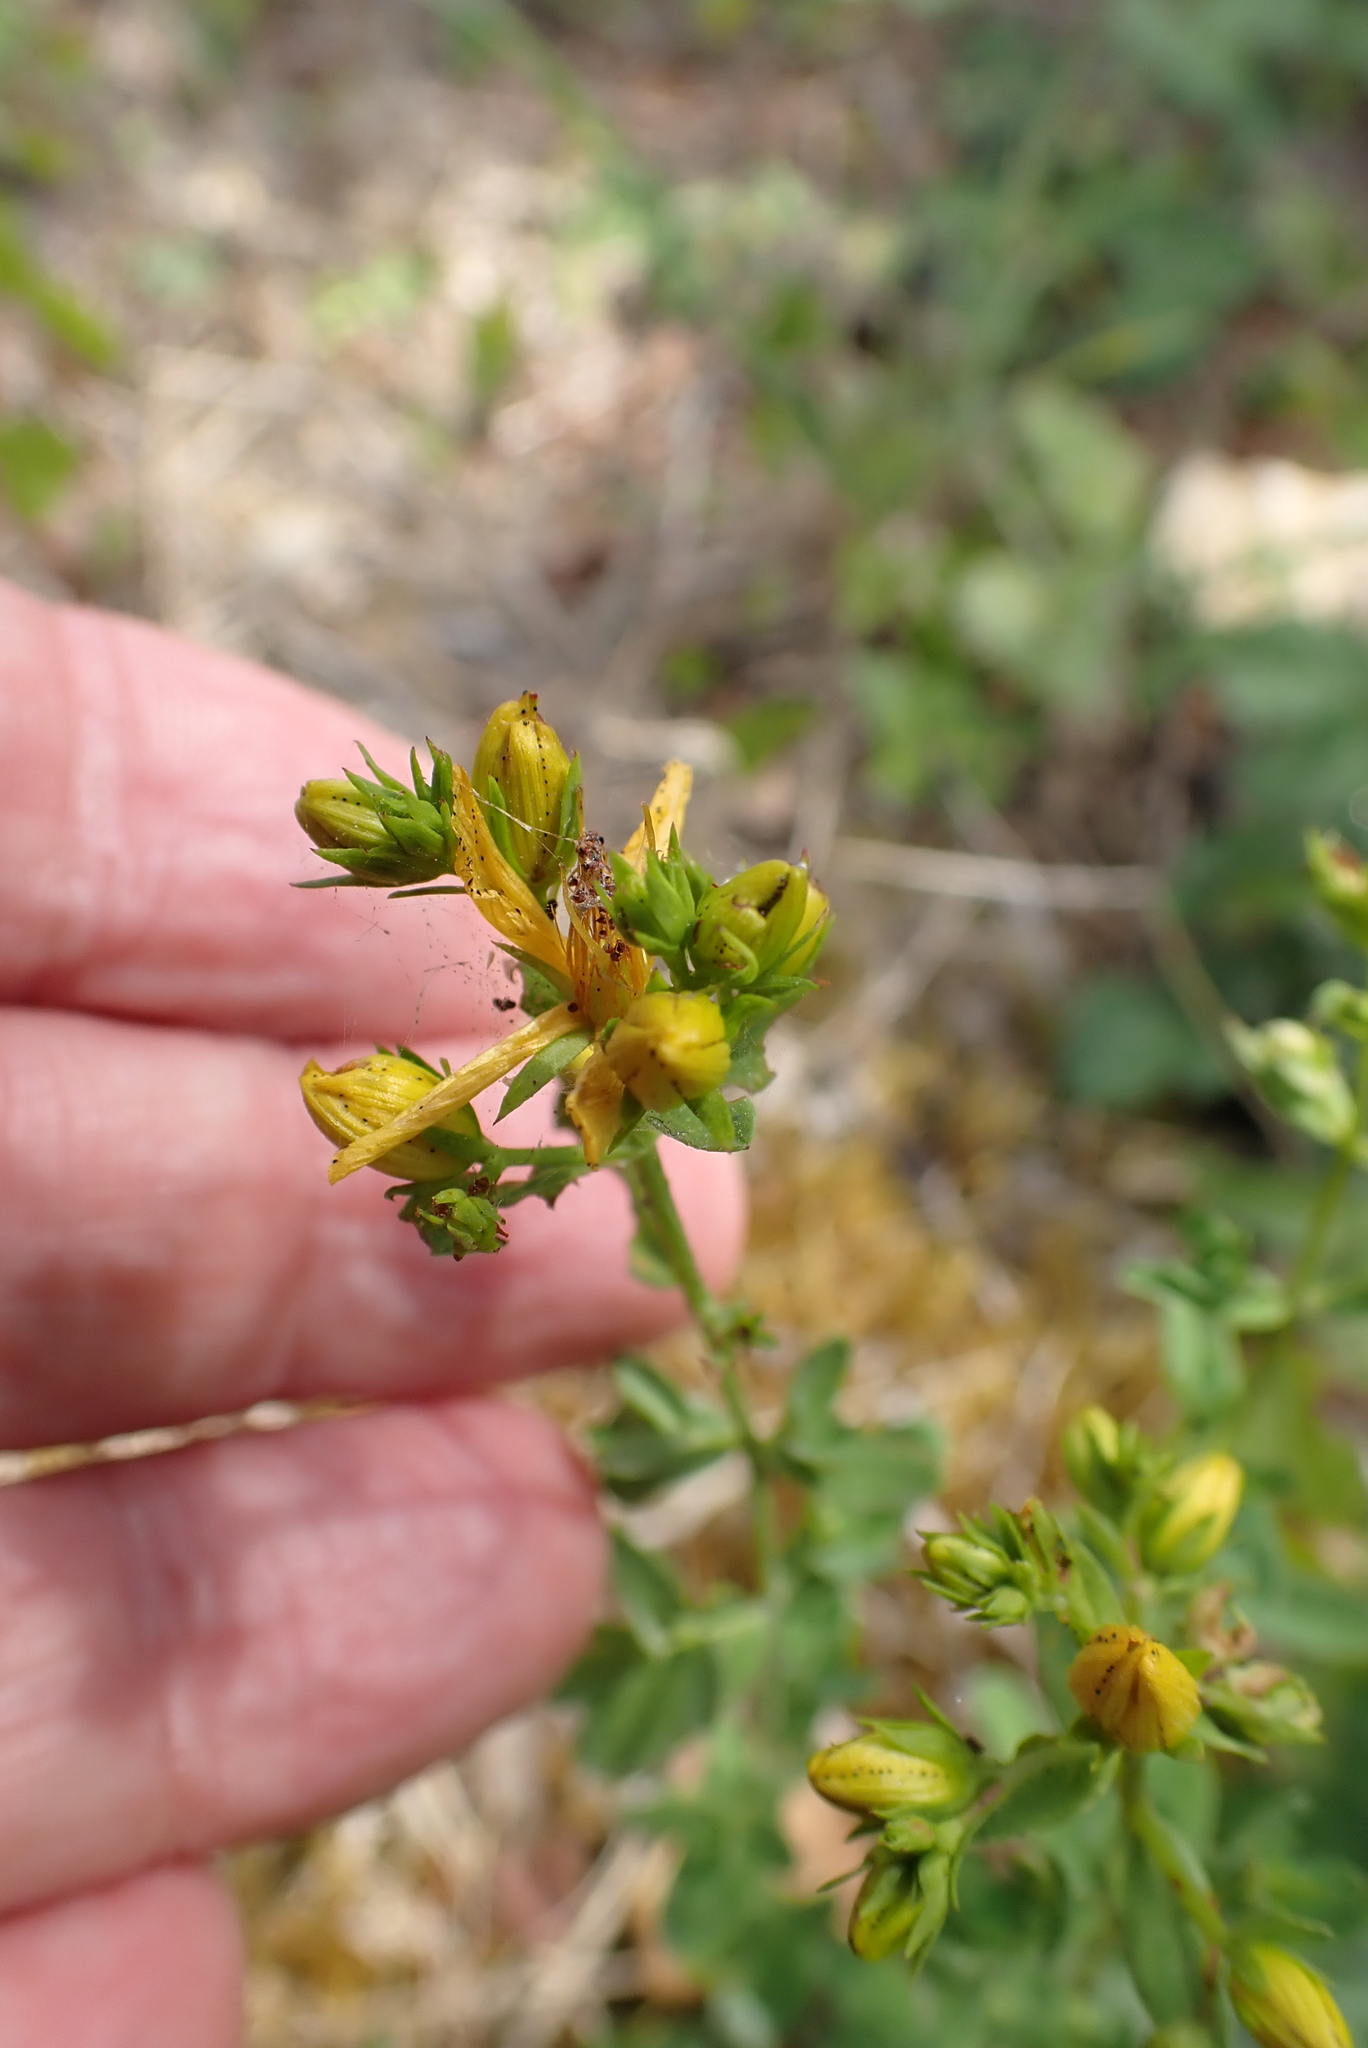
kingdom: Plantae
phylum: Tracheophyta
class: Magnoliopsida
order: Malpighiales
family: Hypericaceae
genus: Hypericum
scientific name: Hypericum perforatum
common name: Common st. johnswort
